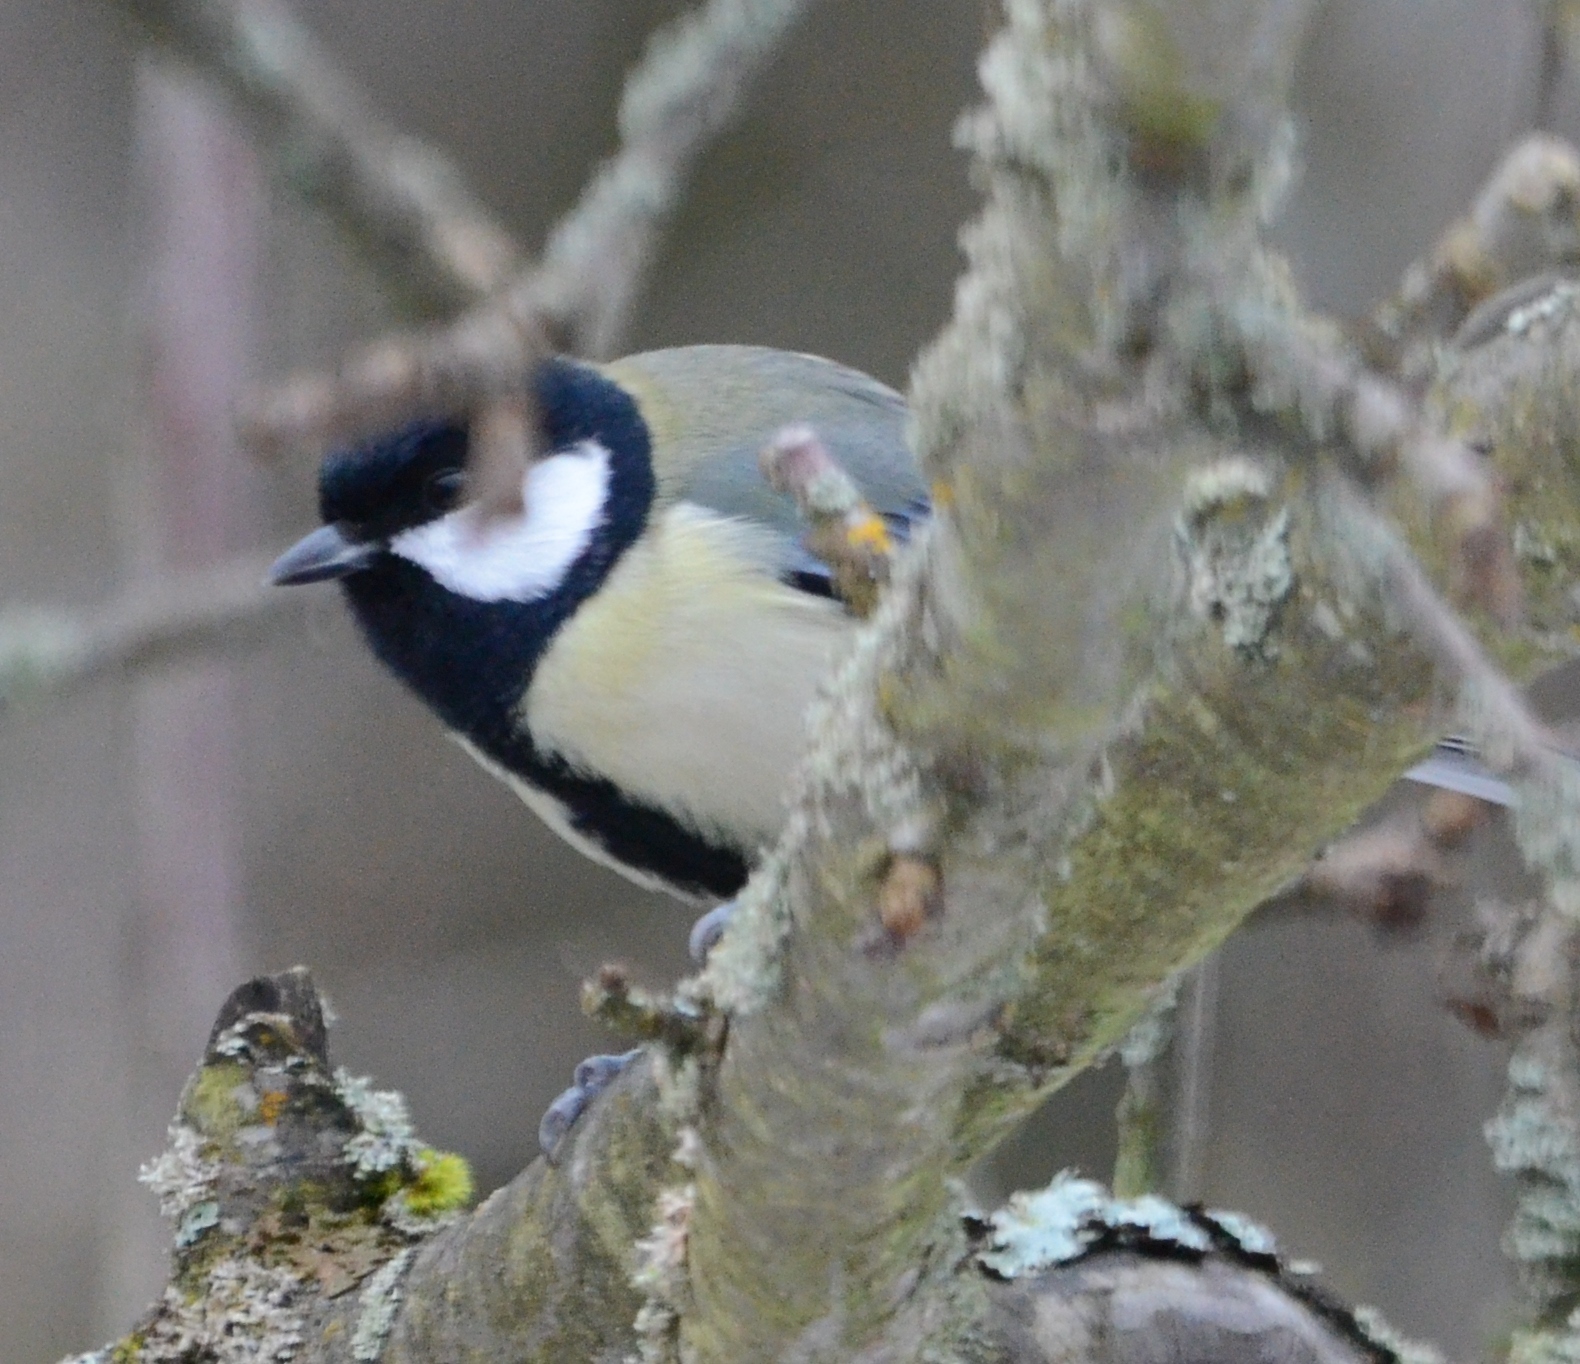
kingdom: Animalia
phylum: Chordata
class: Aves
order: Passeriformes
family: Paridae
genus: Parus
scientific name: Parus major
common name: Great tit
